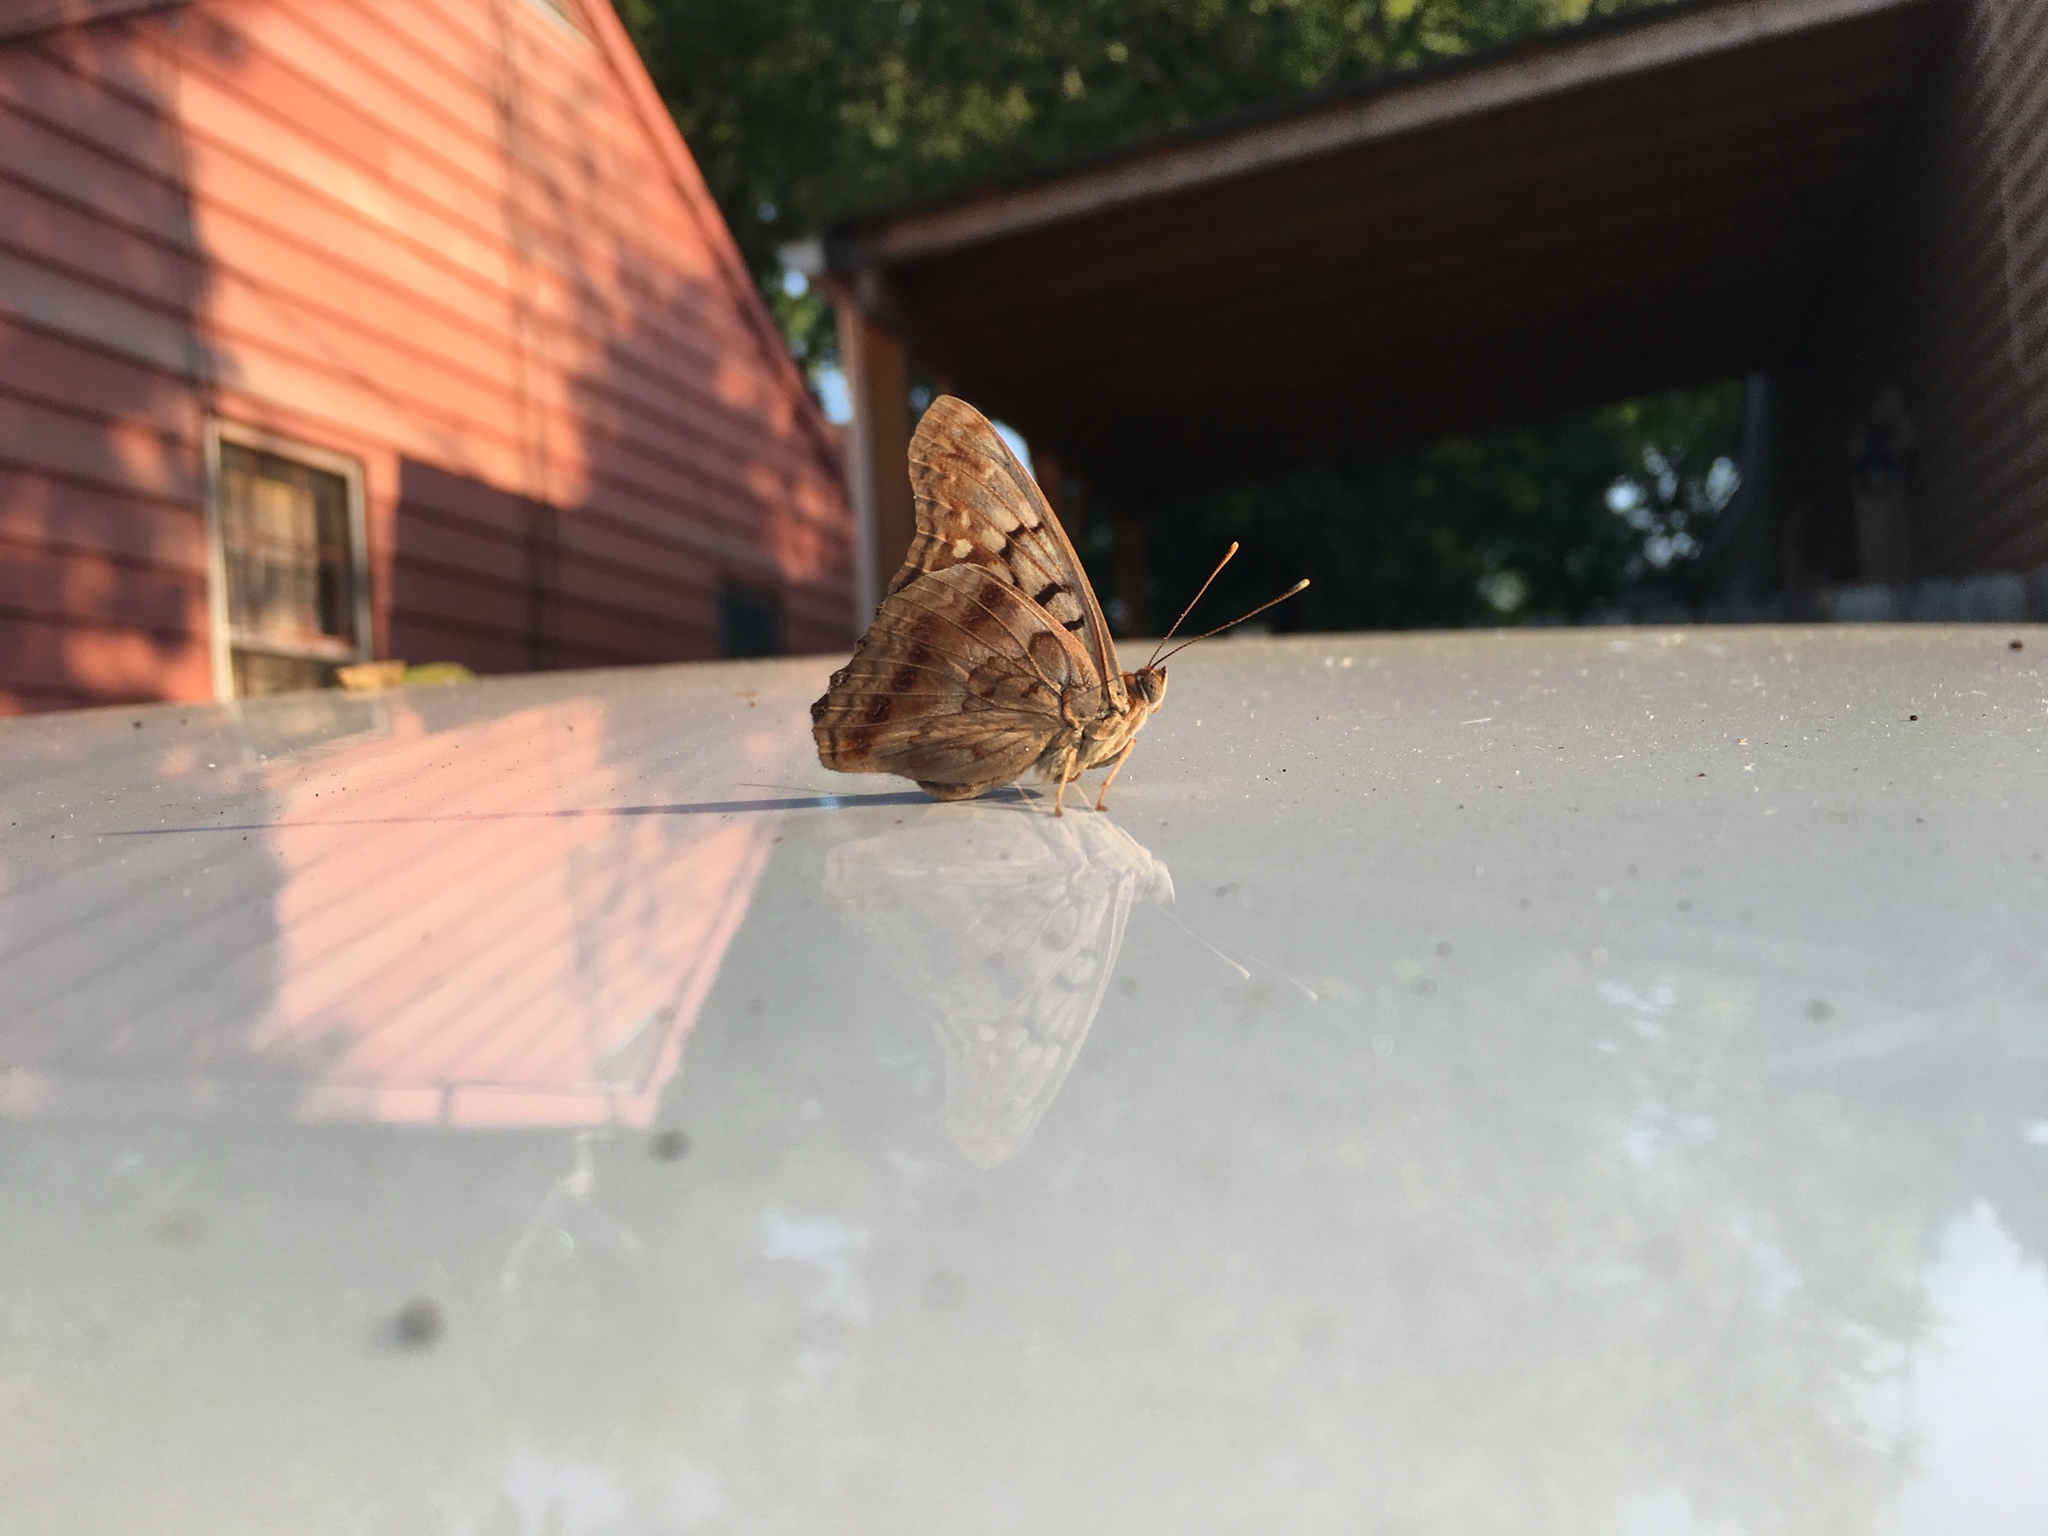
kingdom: Animalia
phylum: Arthropoda
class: Insecta
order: Lepidoptera
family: Nymphalidae
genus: Asterocampa
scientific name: Asterocampa clyton
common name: Tawny emperor
